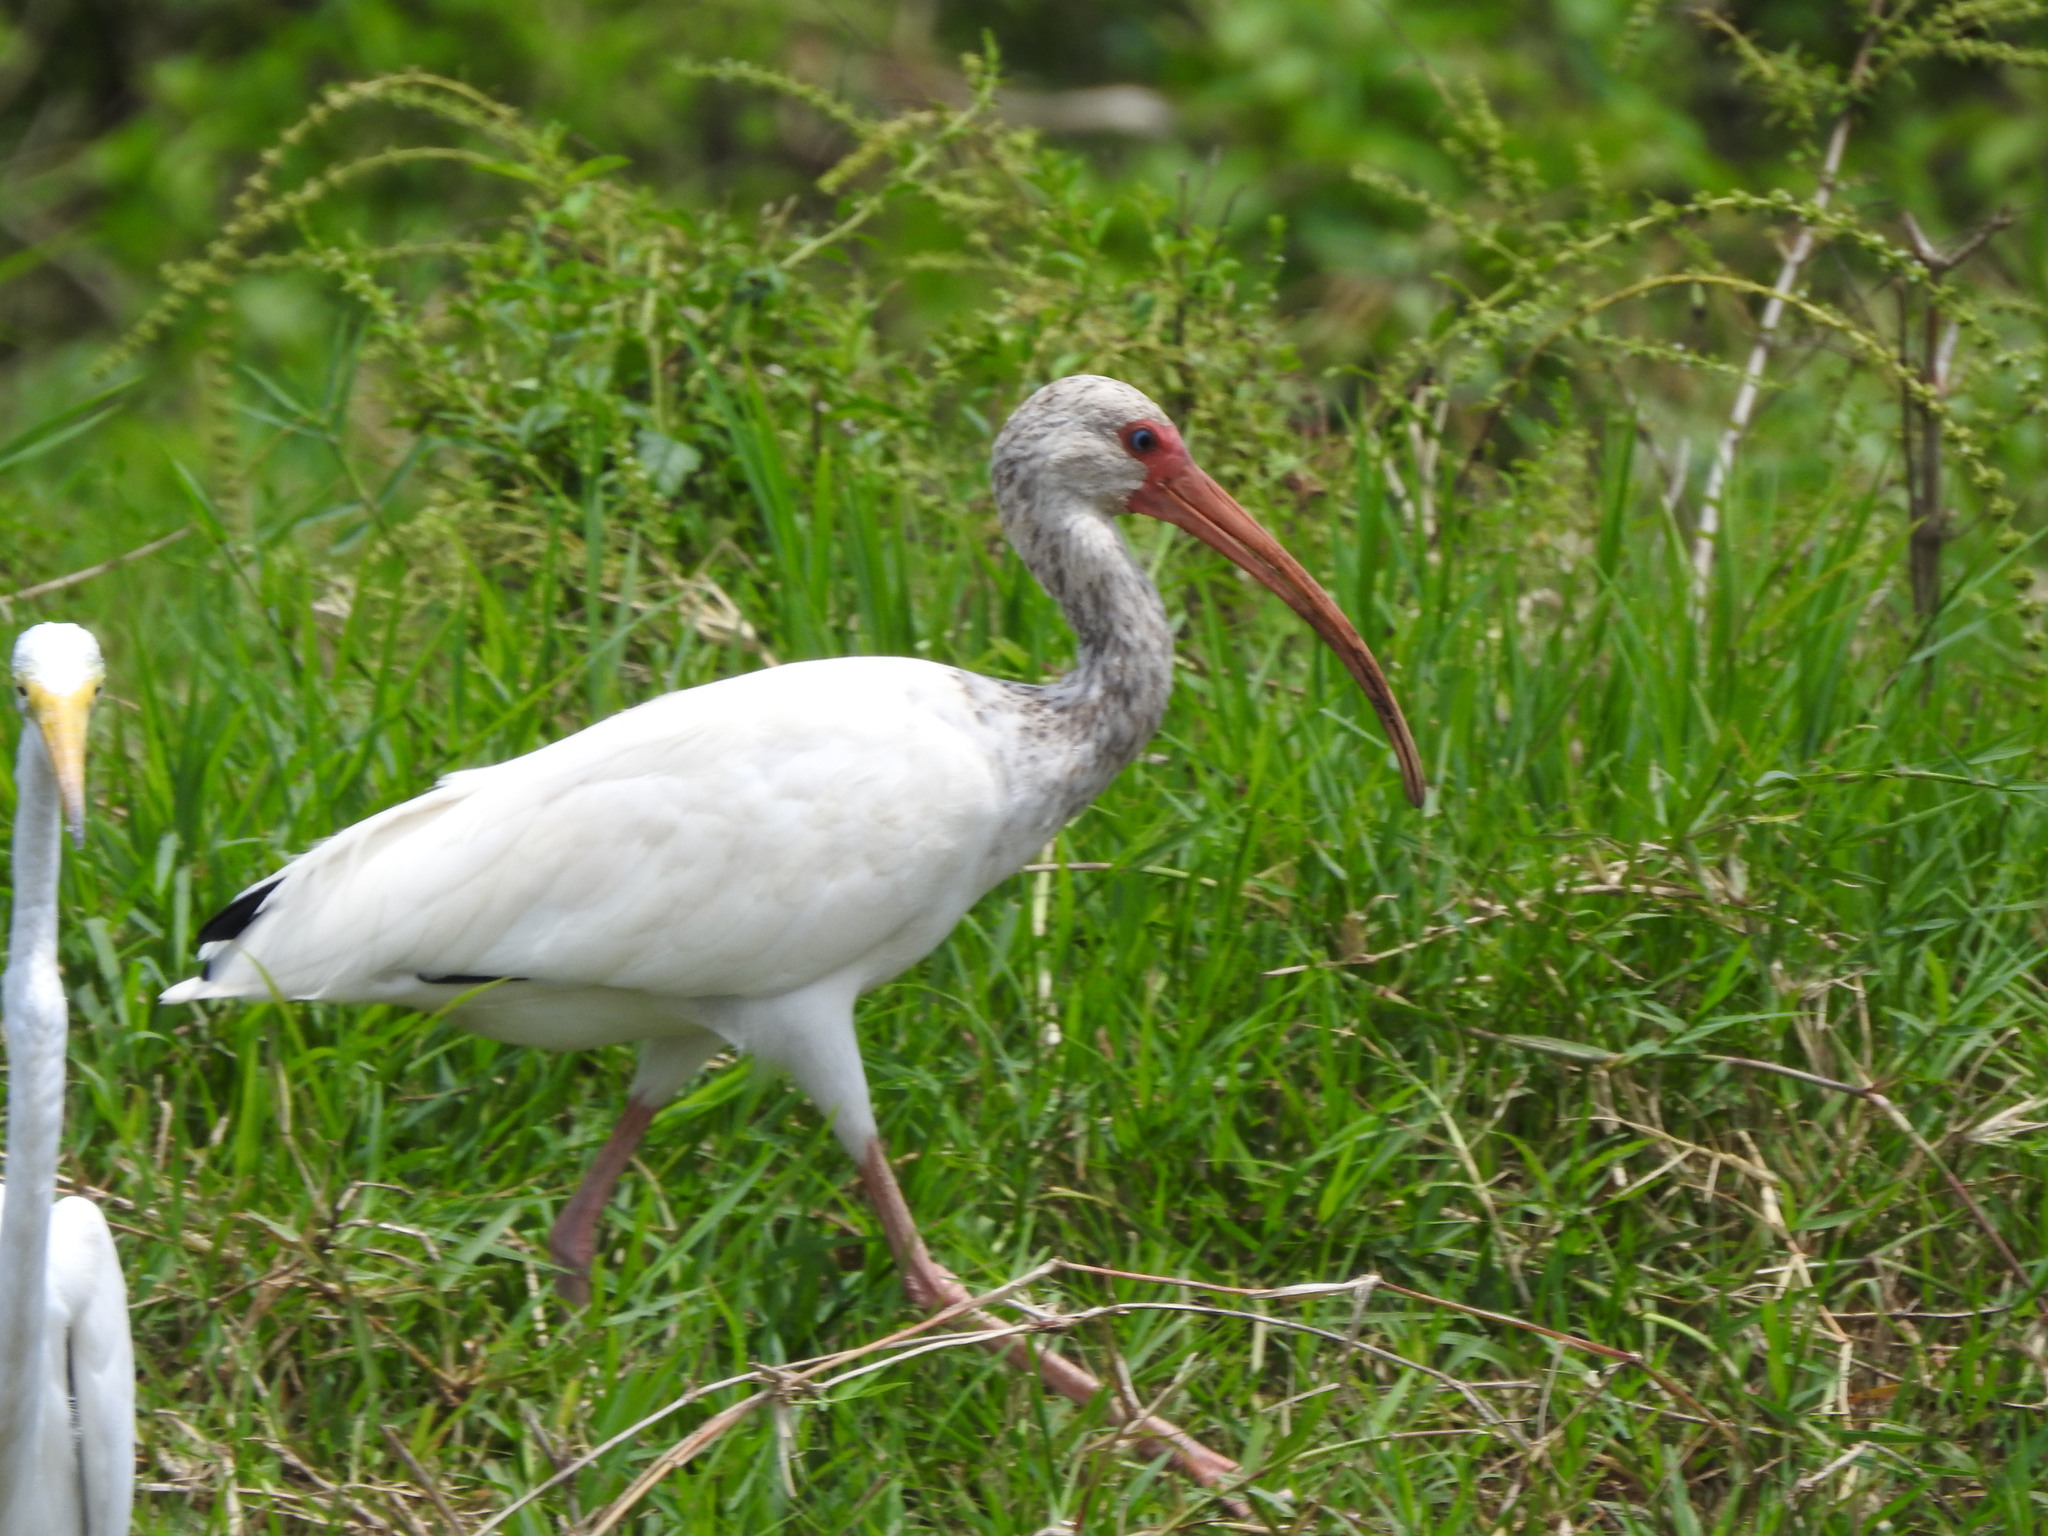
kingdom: Animalia
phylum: Chordata
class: Aves
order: Pelecaniformes
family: Threskiornithidae
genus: Eudocimus
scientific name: Eudocimus albus
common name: White ibis
